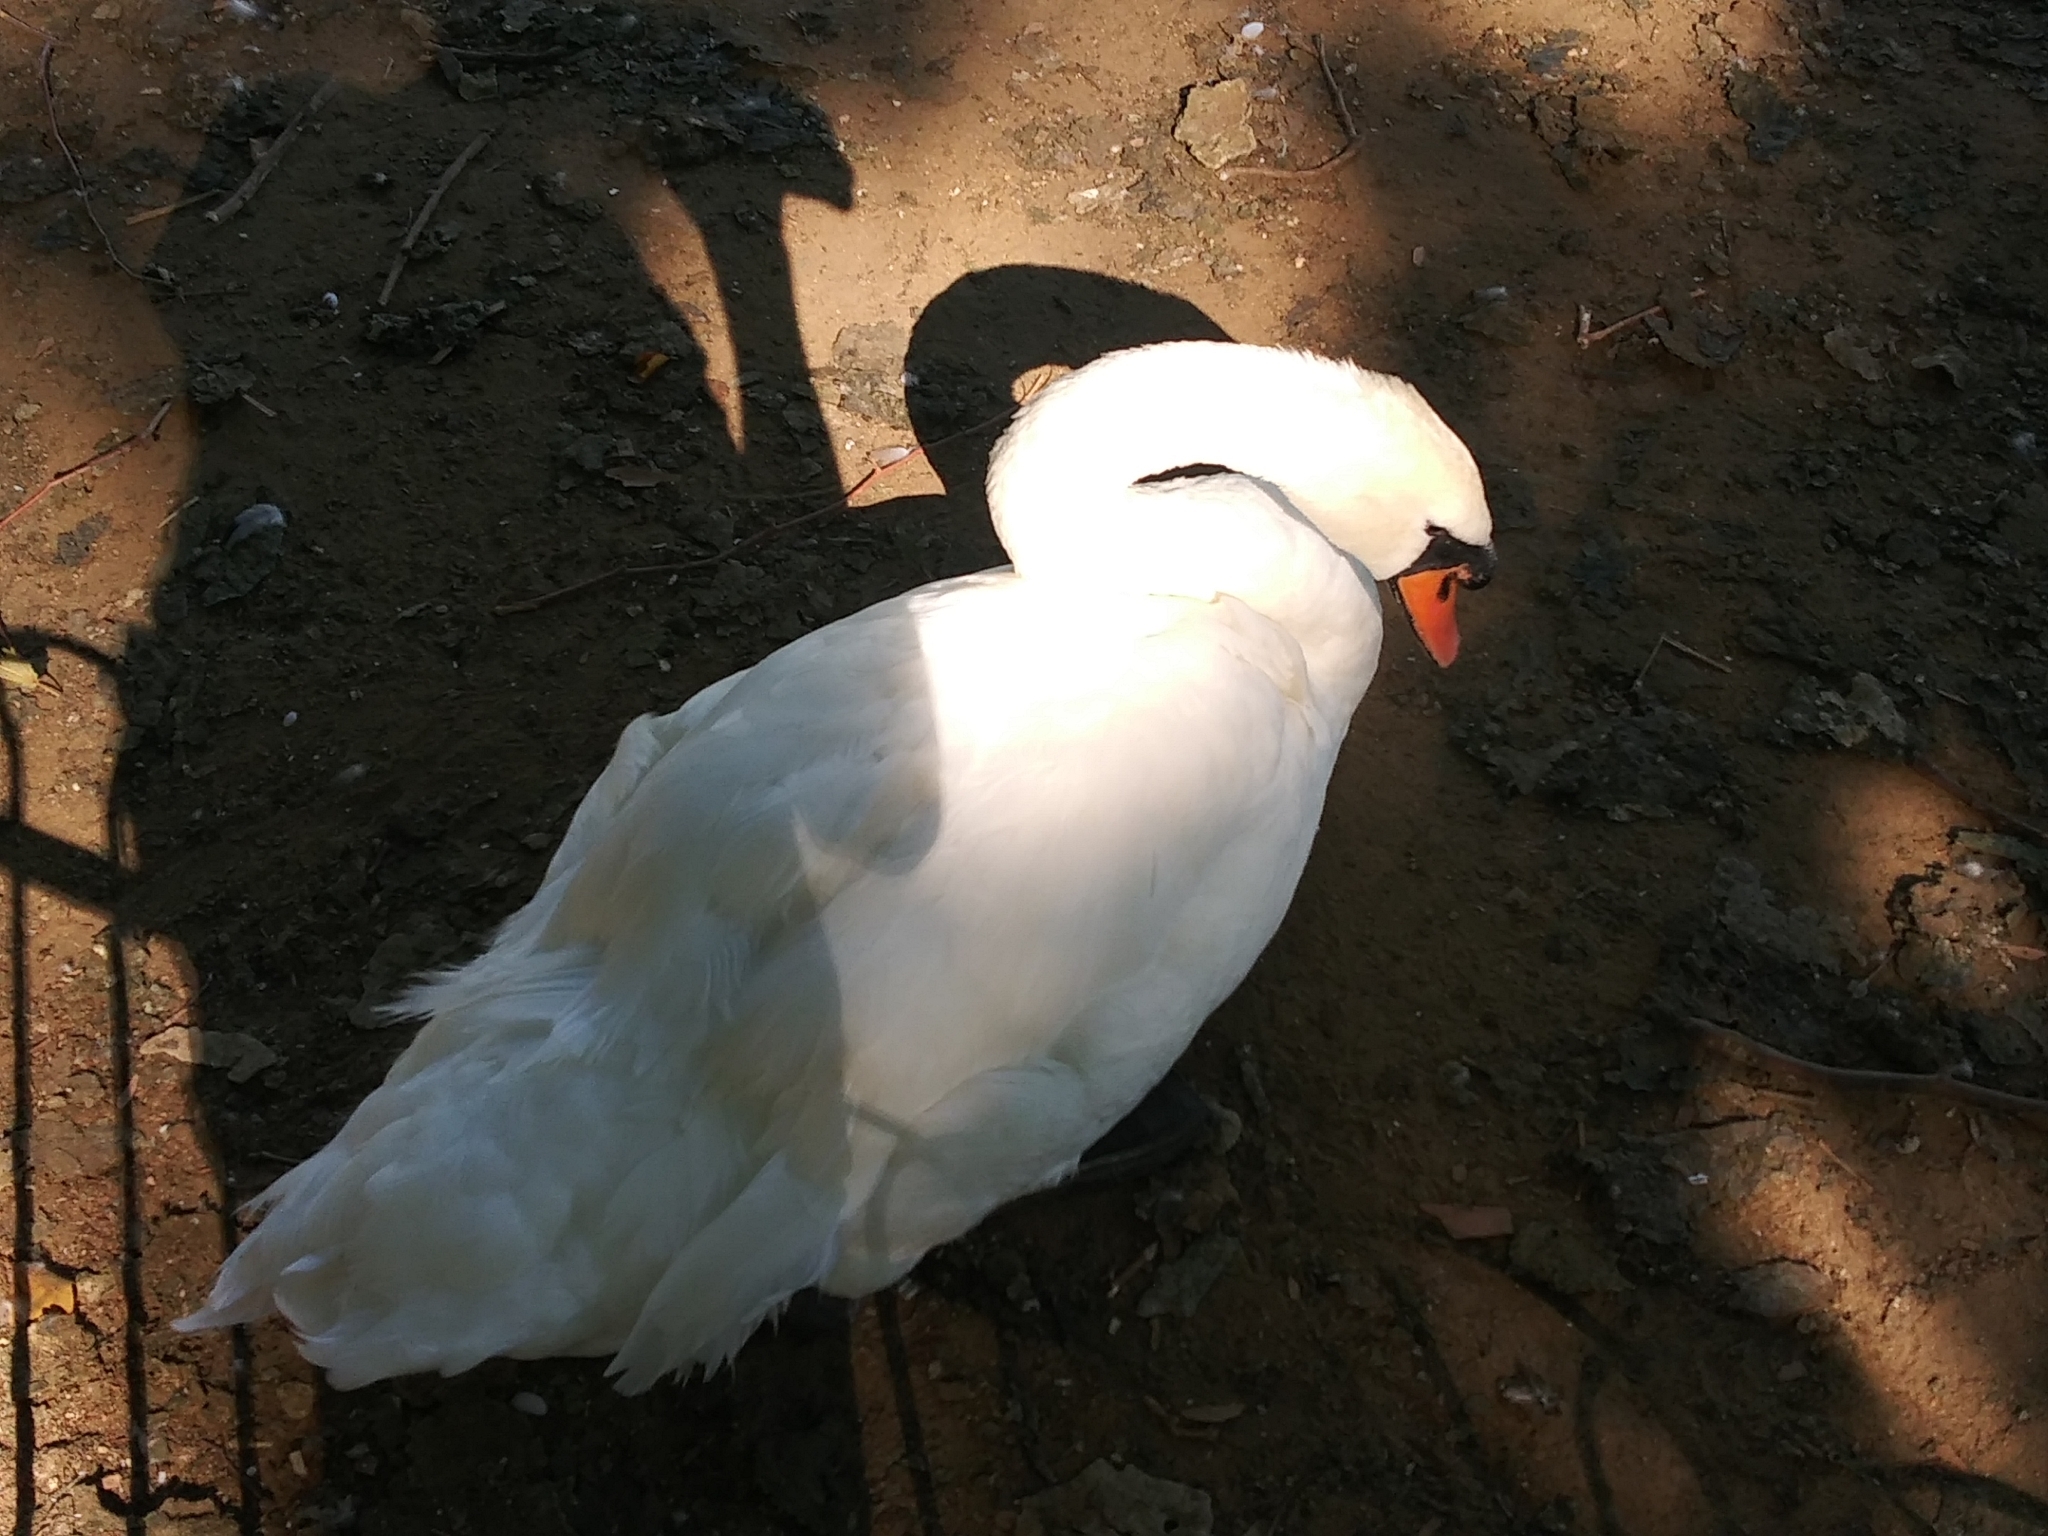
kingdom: Animalia
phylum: Chordata
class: Aves
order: Anseriformes
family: Anatidae
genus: Cygnus
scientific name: Cygnus olor
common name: Mute swan
